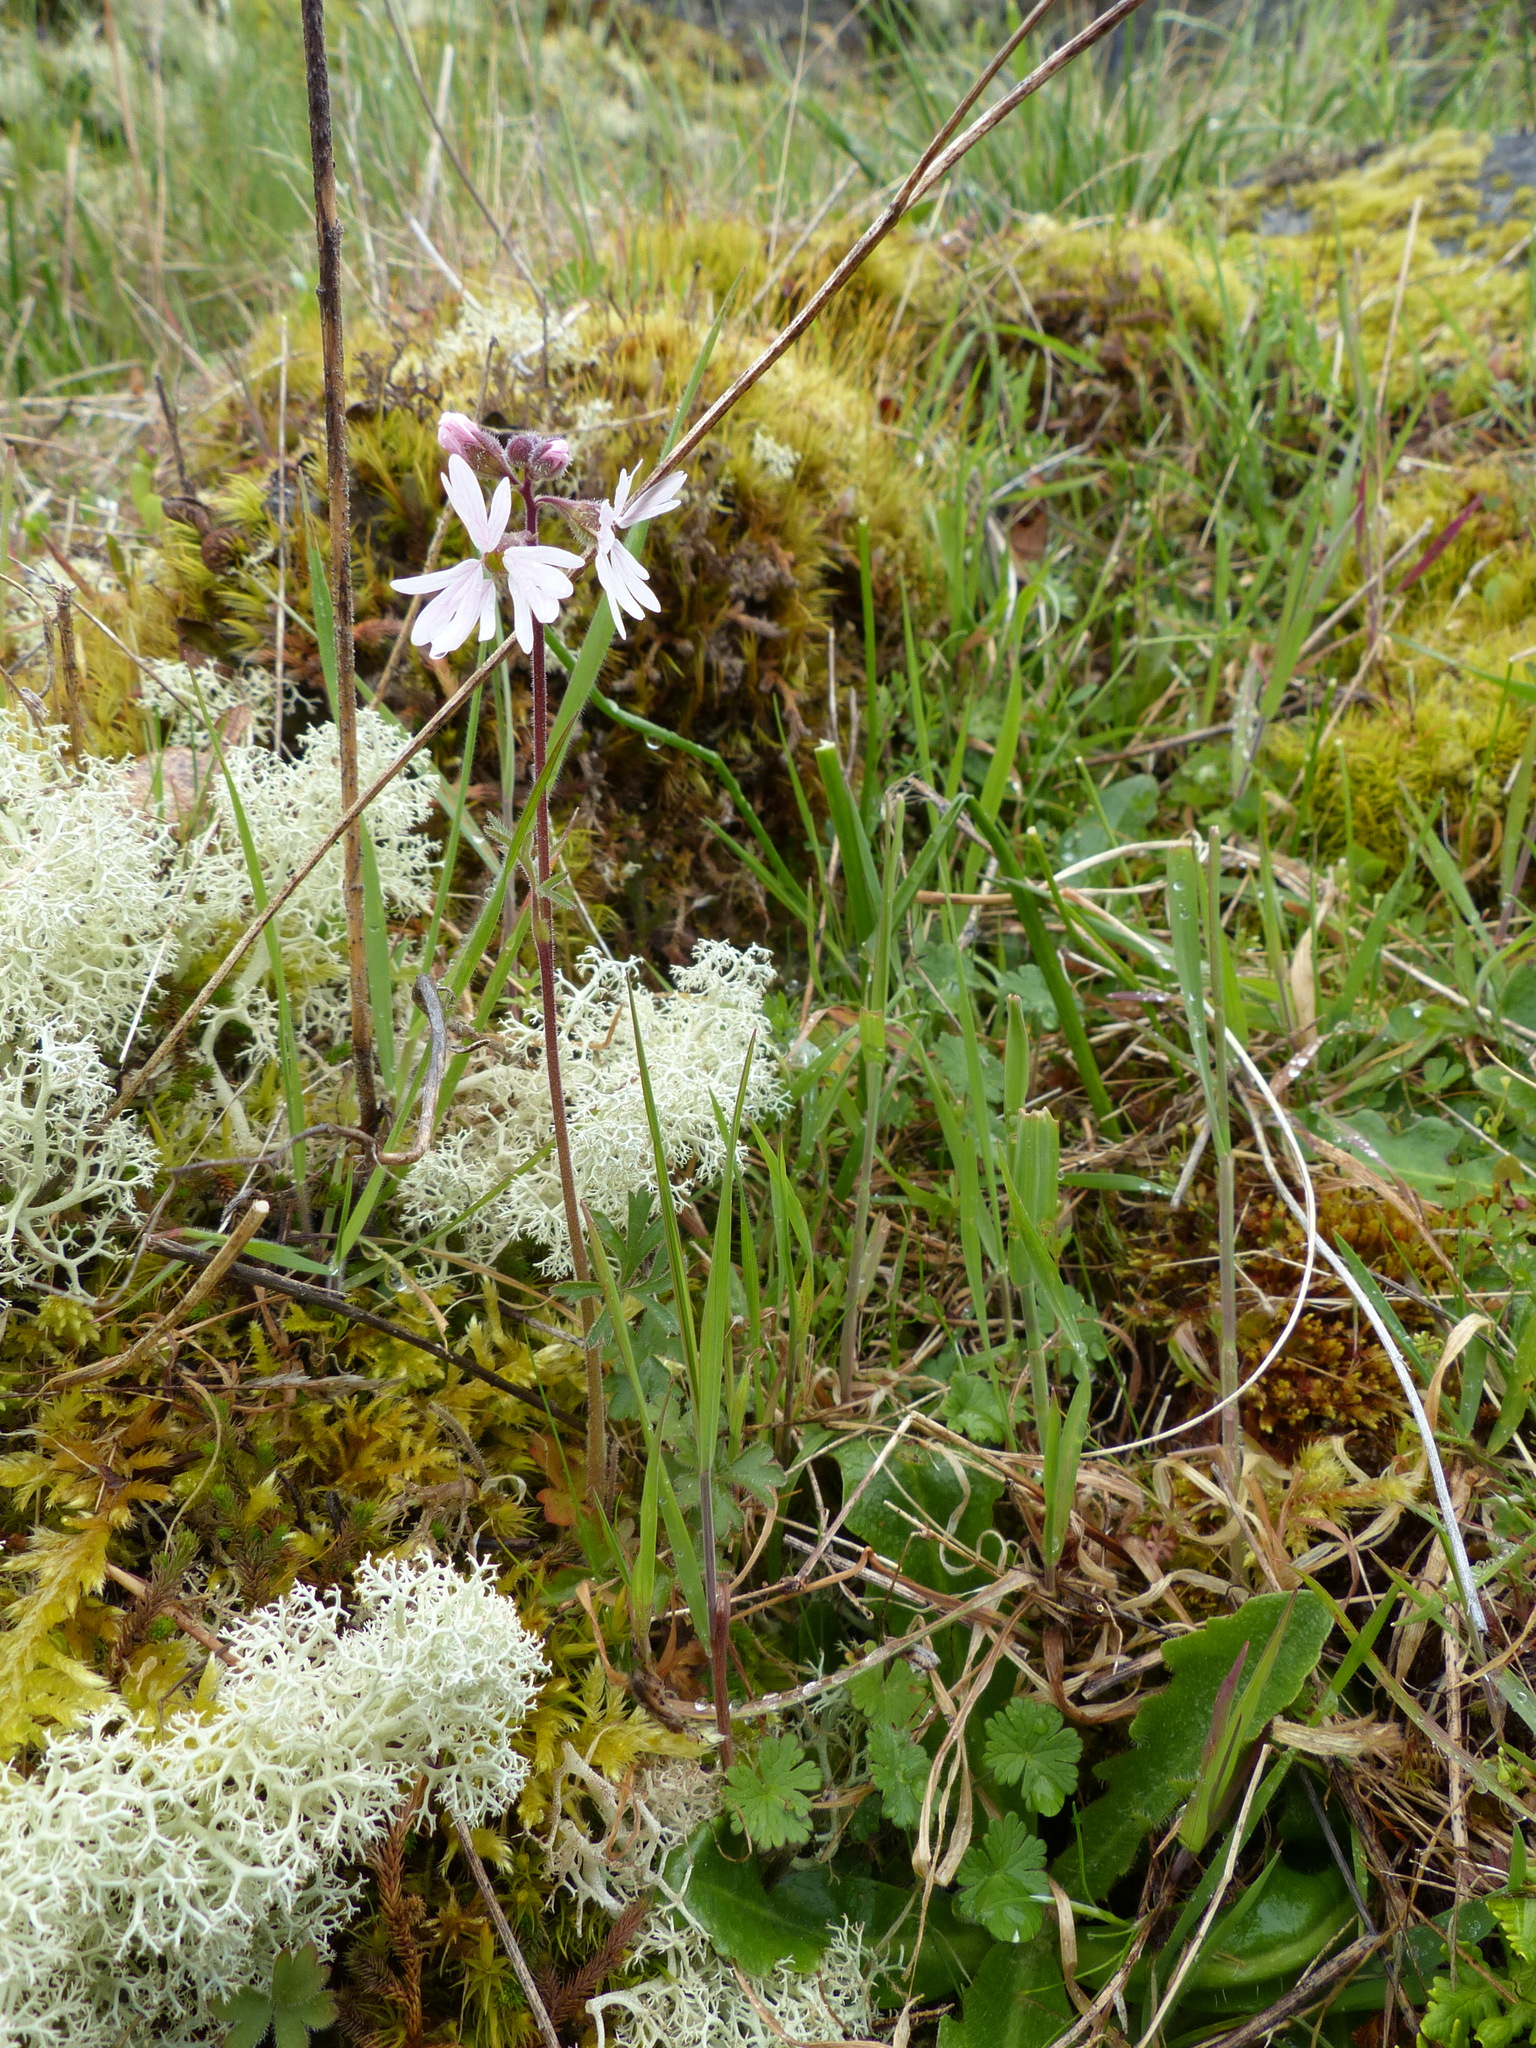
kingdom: Plantae
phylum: Tracheophyta
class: Magnoliopsida
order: Saxifragales
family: Saxifragaceae
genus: Lithophragma
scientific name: Lithophragma parviflorum
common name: Small-flowered fringe-cup
